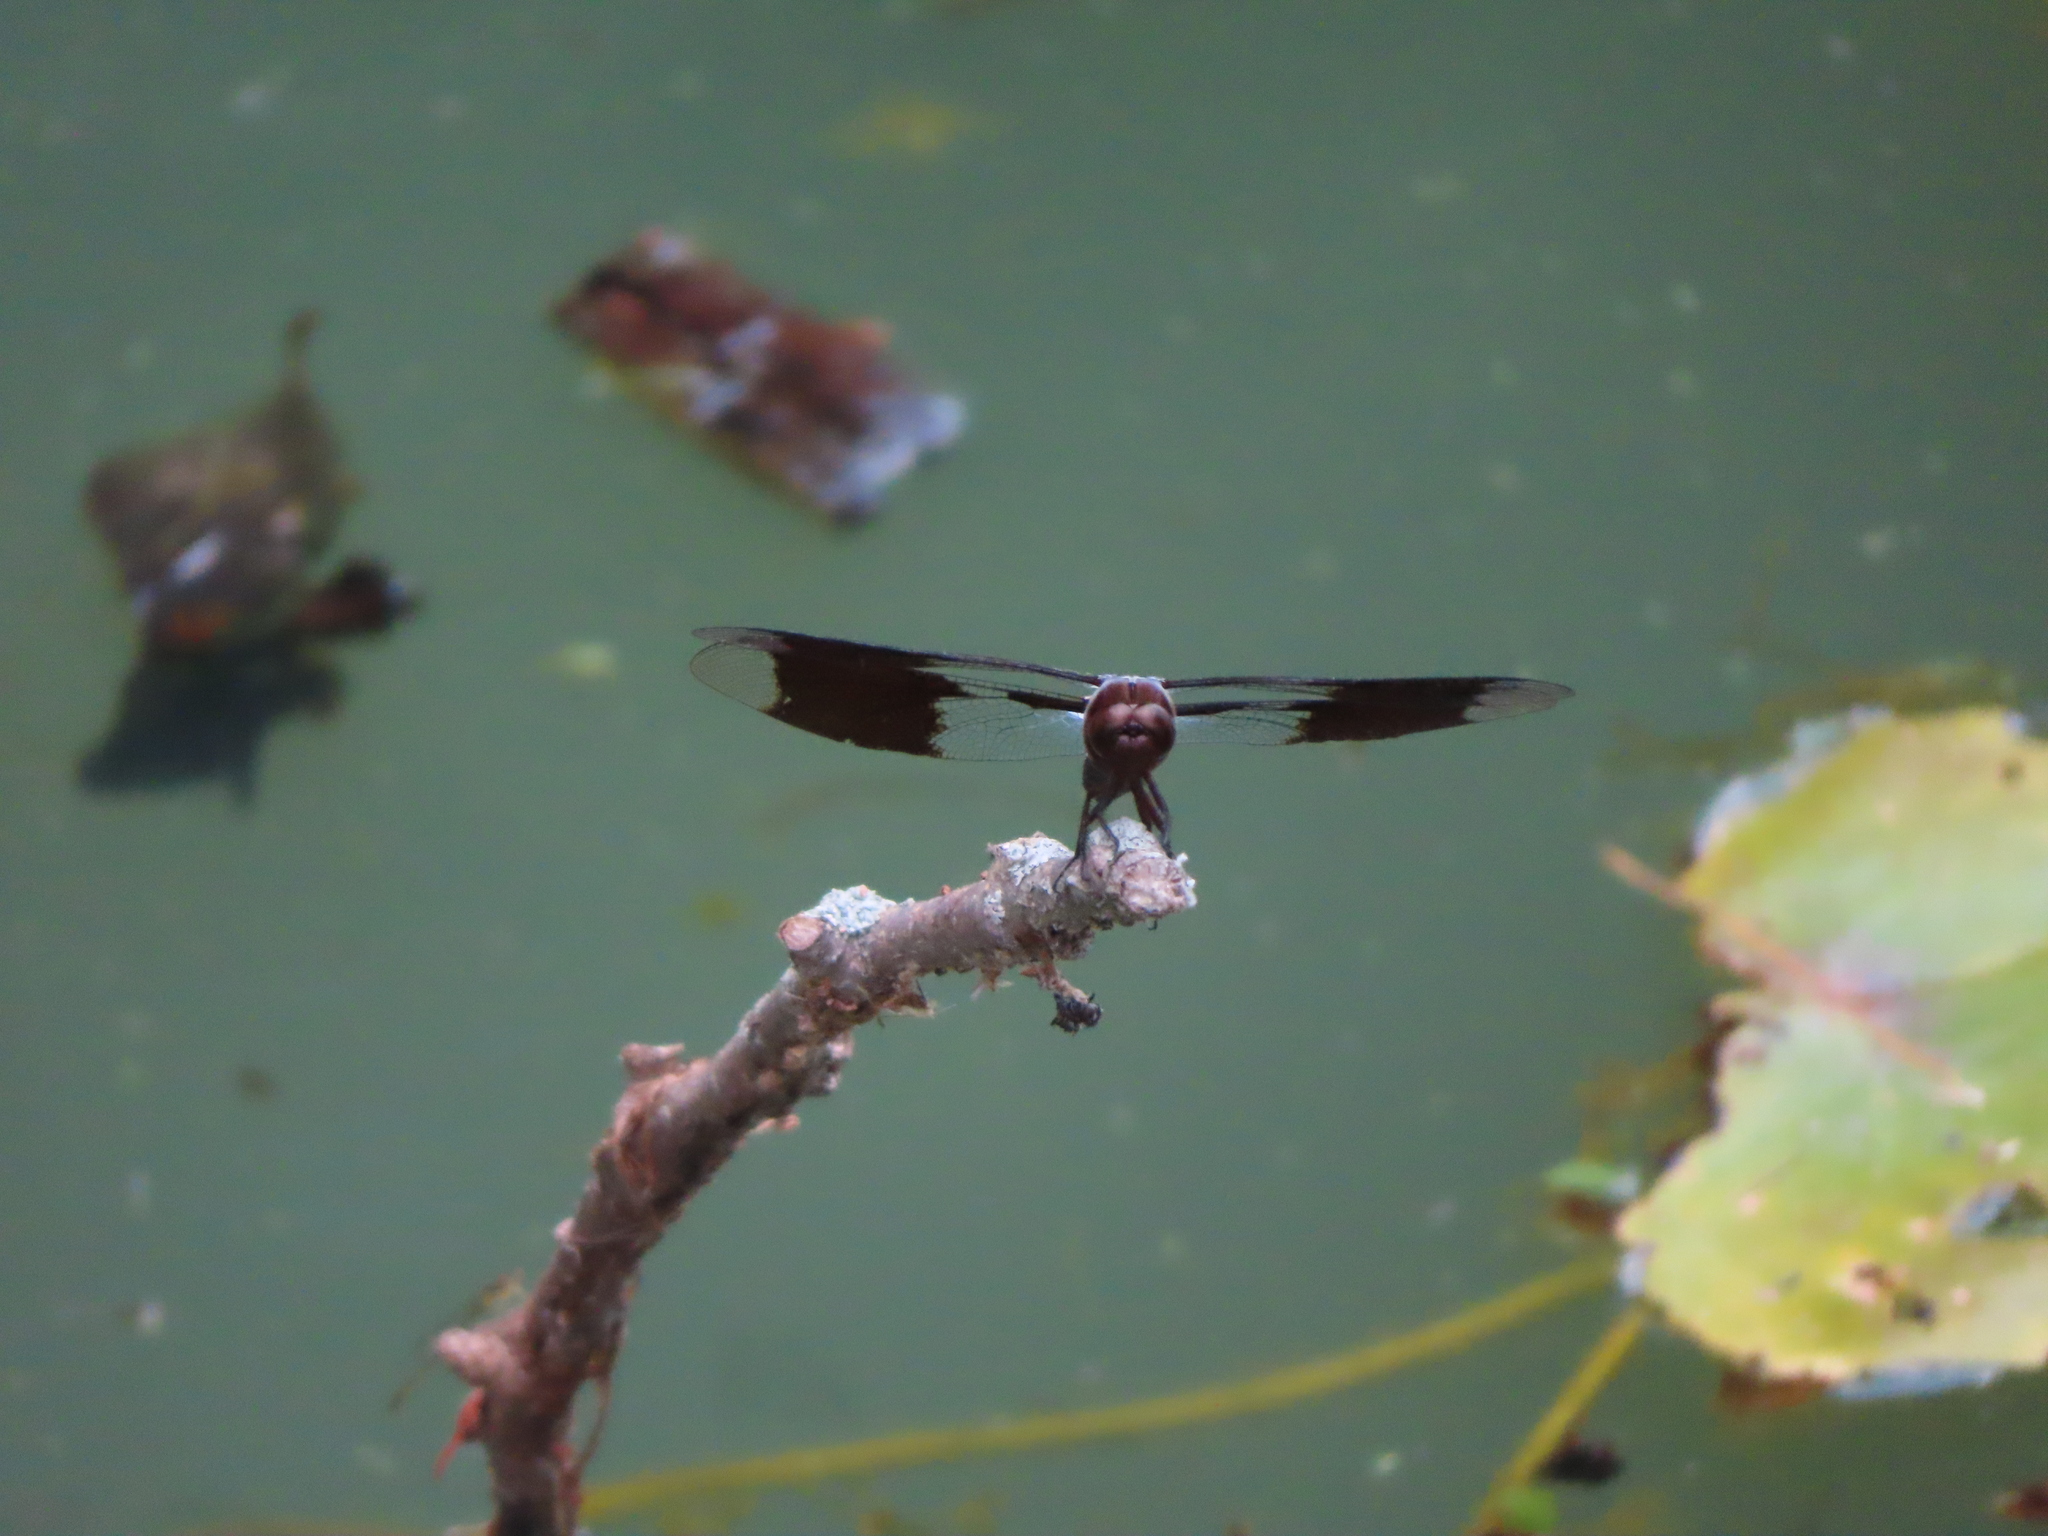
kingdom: Animalia
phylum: Arthropoda
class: Insecta
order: Odonata
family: Libellulidae
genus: Plathemis
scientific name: Plathemis lydia
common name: Common whitetail
